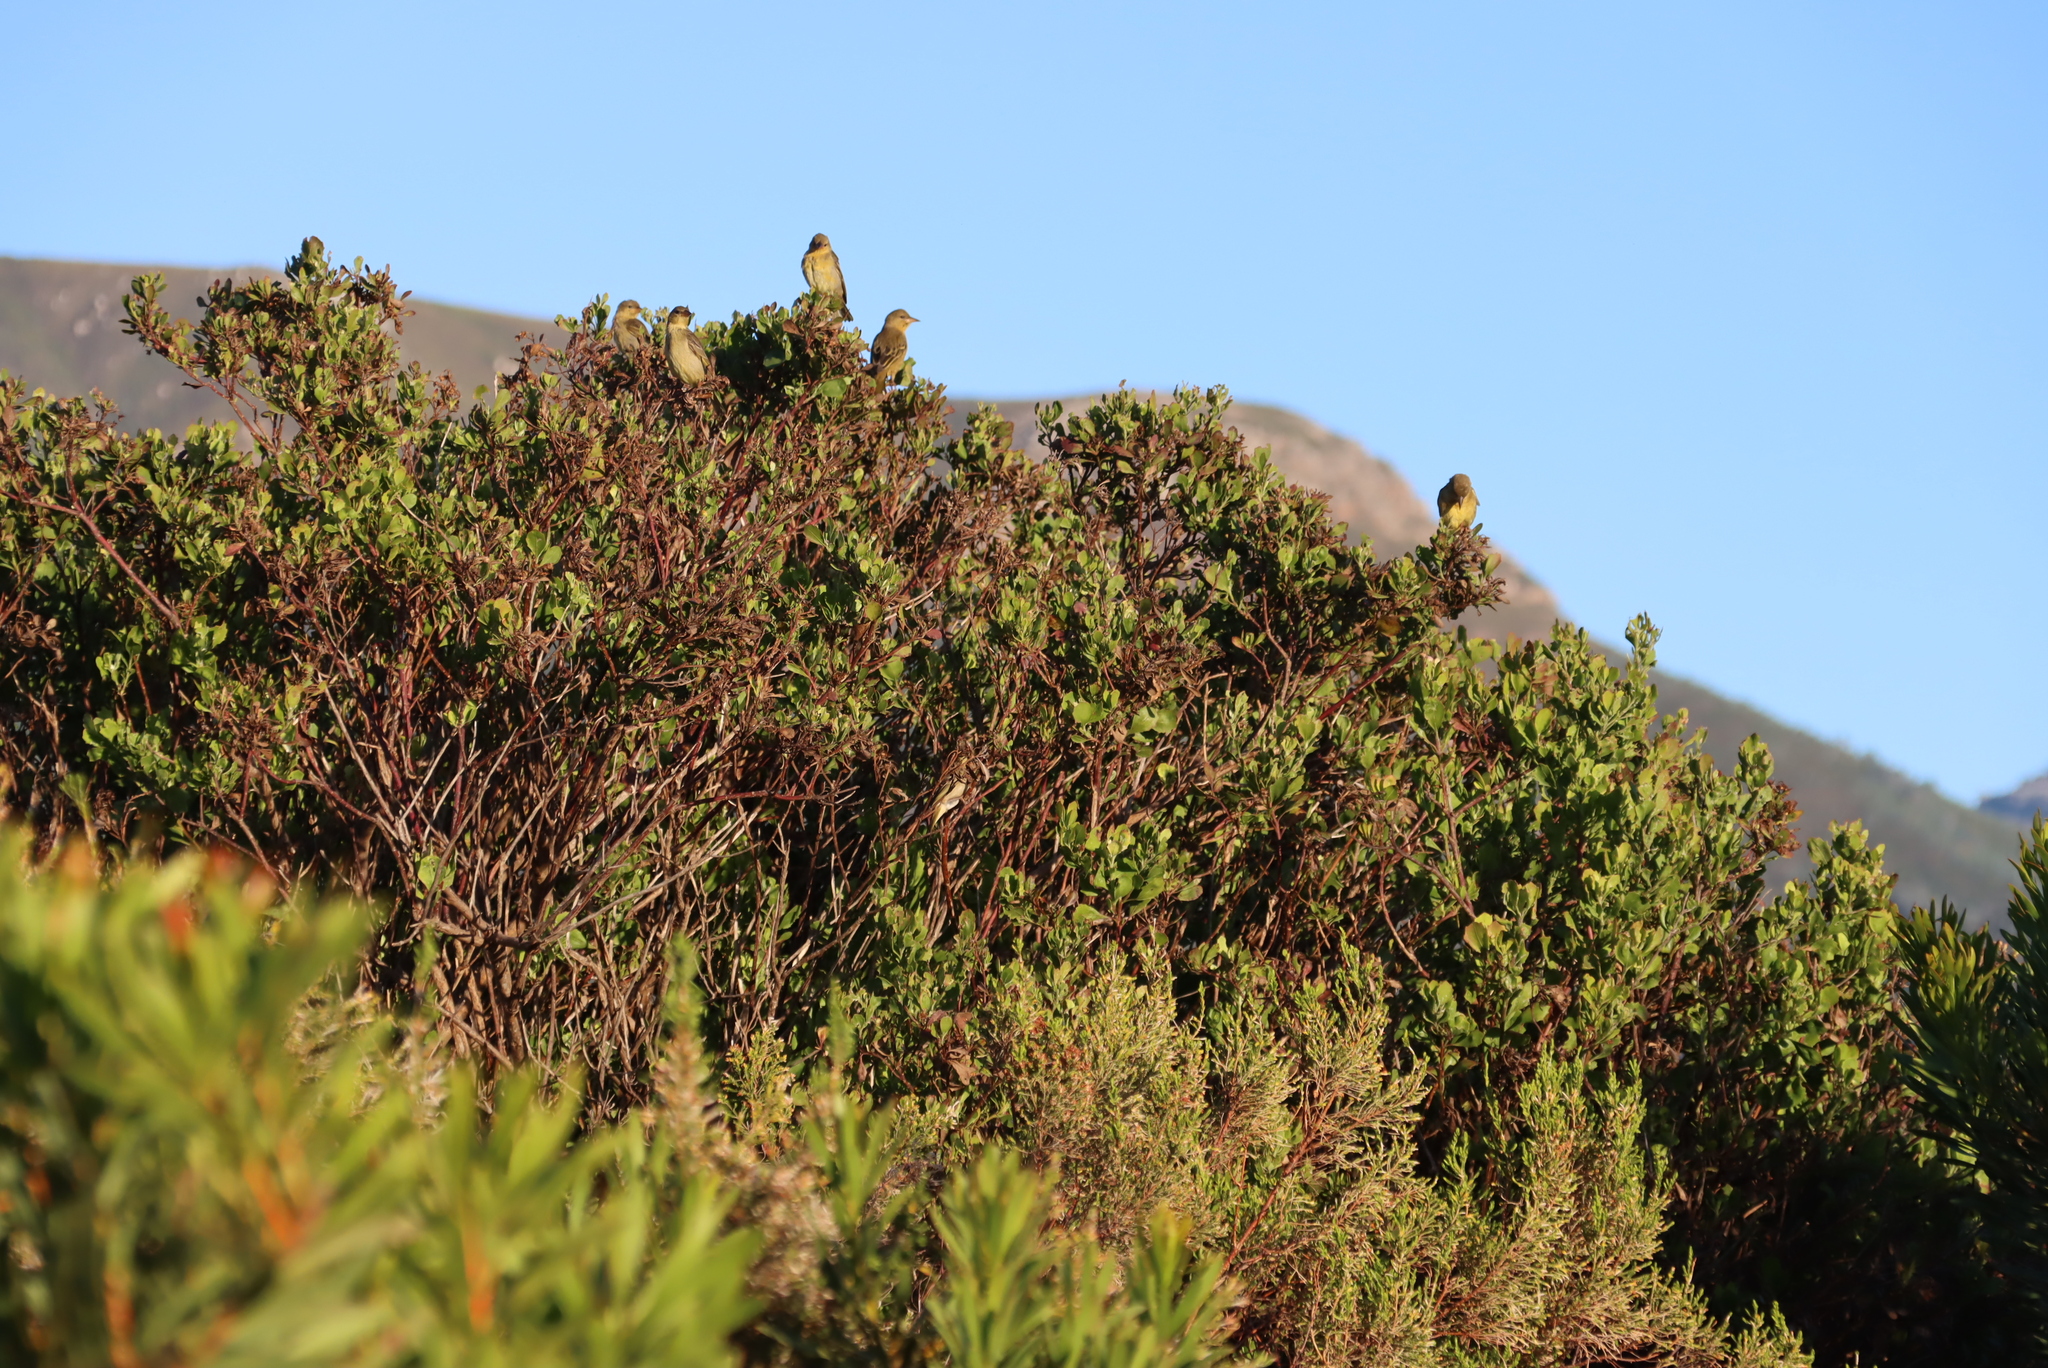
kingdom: Plantae
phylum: Tracheophyta
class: Magnoliopsida
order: Asterales
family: Asteraceae
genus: Osteospermum
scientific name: Osteospermum moniliferum
